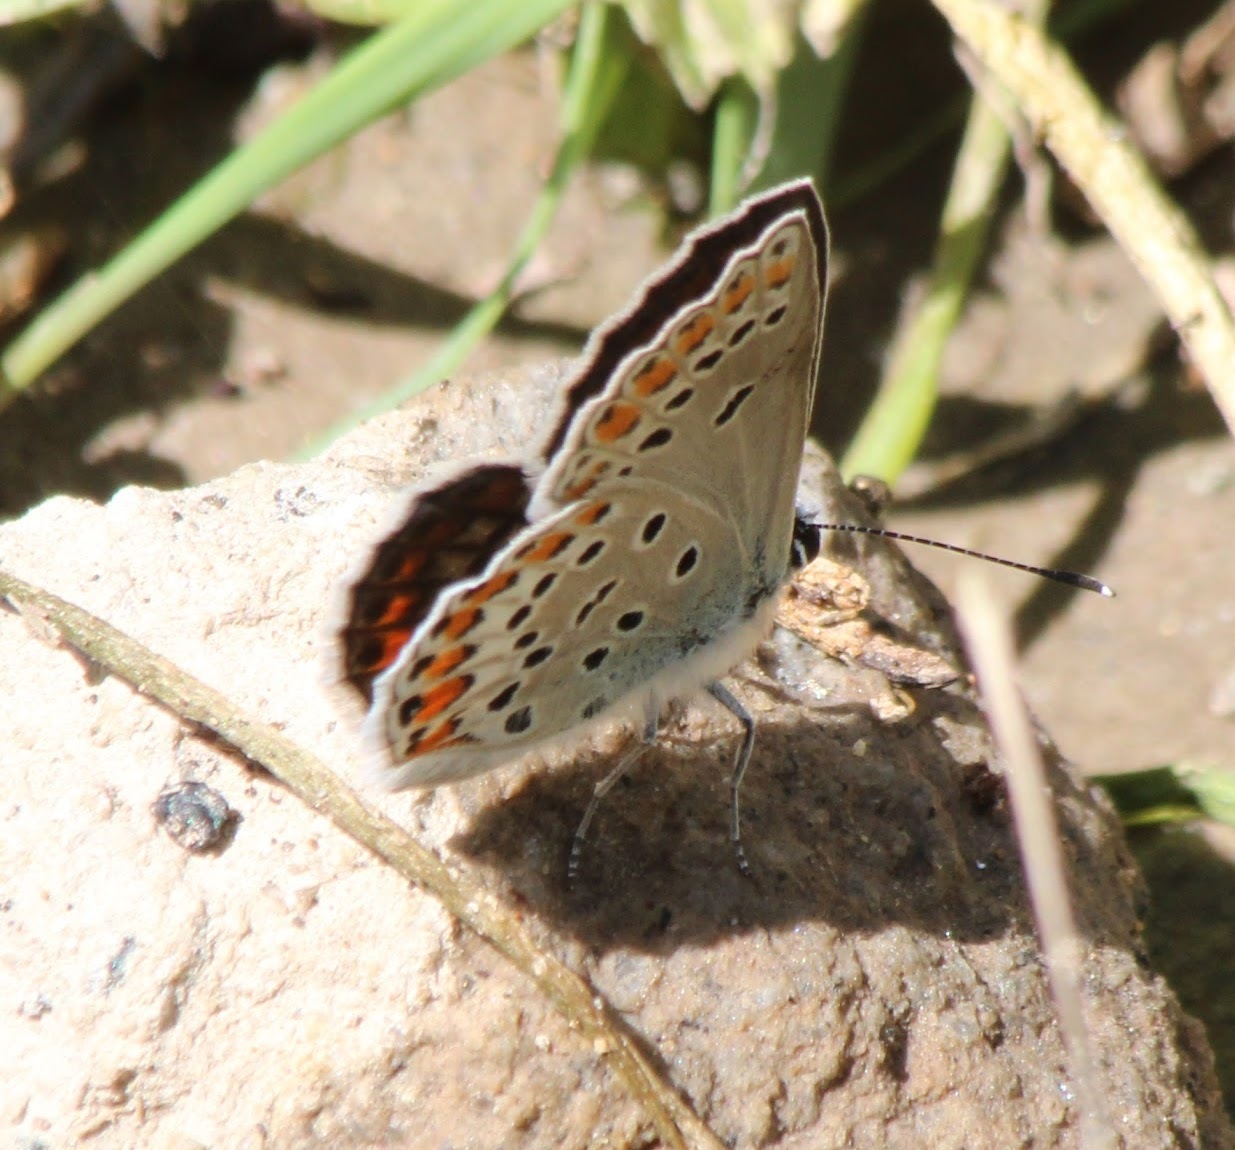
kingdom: Animalia
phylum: Arthropoda
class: Insecta
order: Lepidoptera
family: Lycaenidae
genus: Kretania
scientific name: Kretania eurypilus
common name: Eastern brown argus
